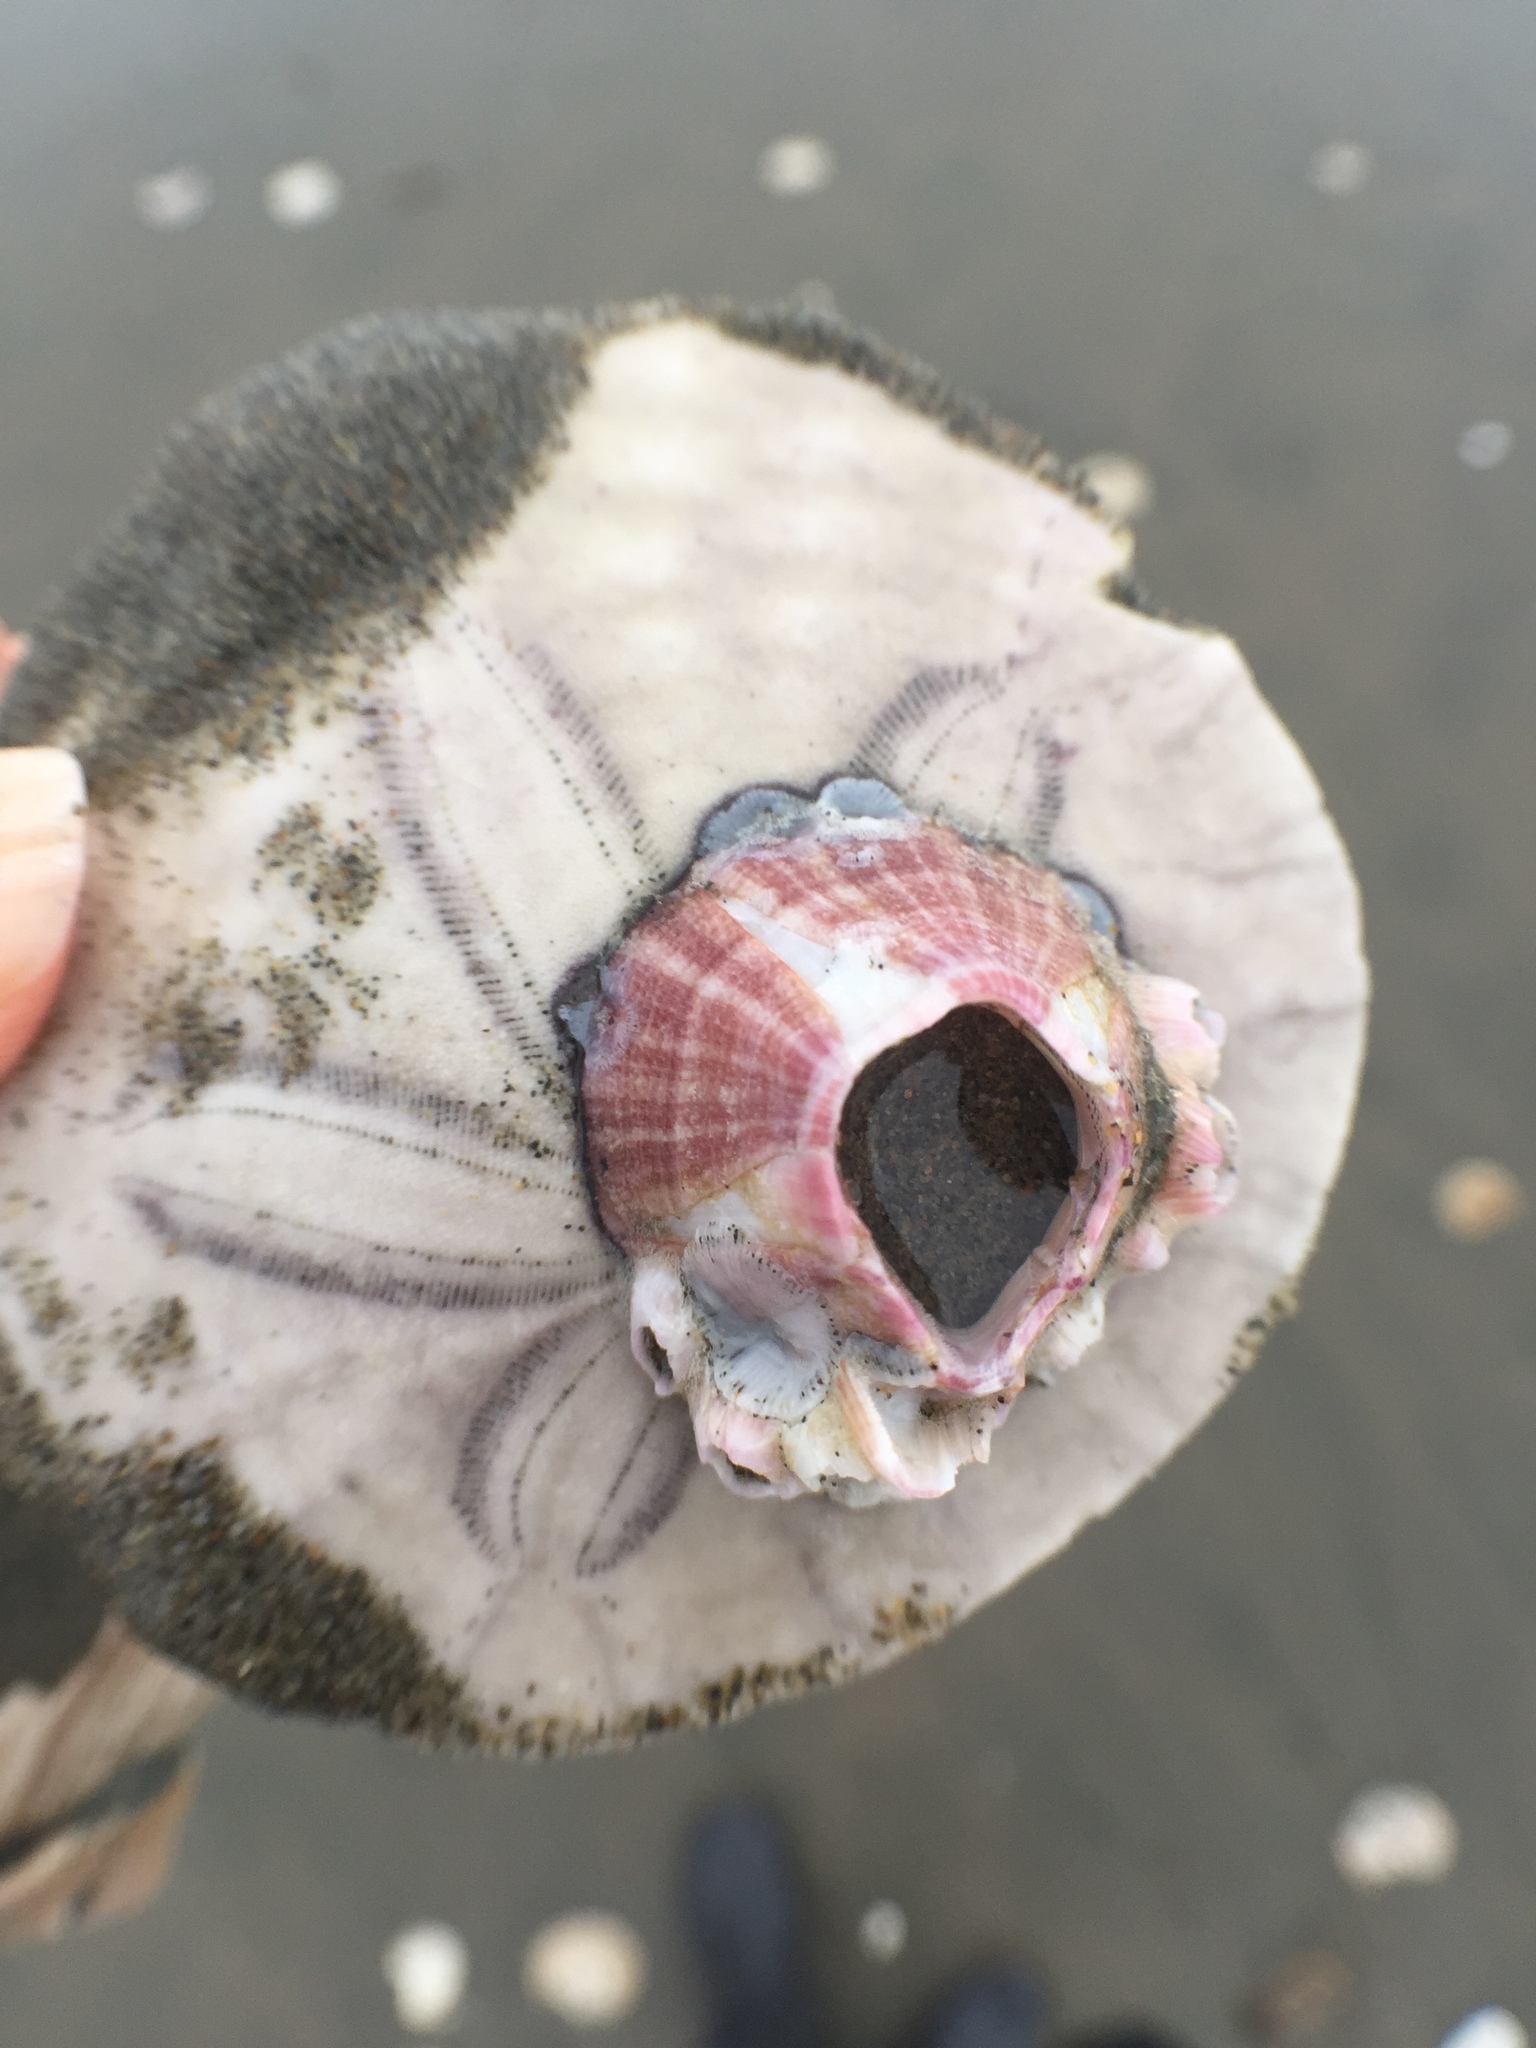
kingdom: Animalia
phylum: Arthropoda
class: Maxillopoda
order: Sessilia
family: Balanidae
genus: Paraconcavus
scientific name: Paraconcavus pacificus
